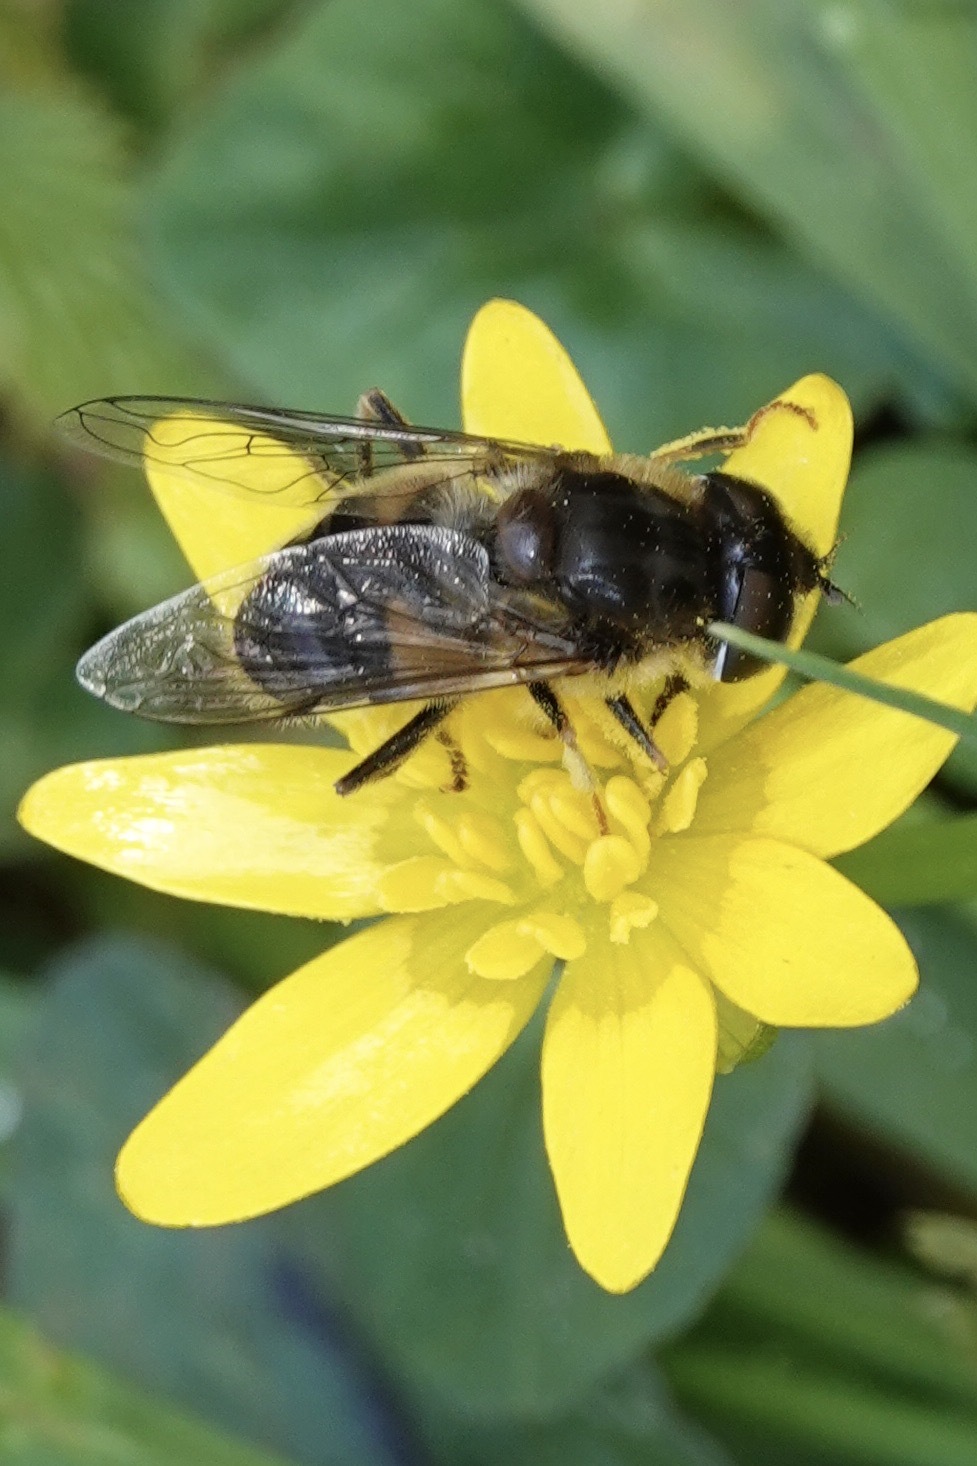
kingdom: Animalia
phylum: Arthropoda
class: Insecta
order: Diptera
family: Syrphidae
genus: Eristalis
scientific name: Eristalis pertinax
